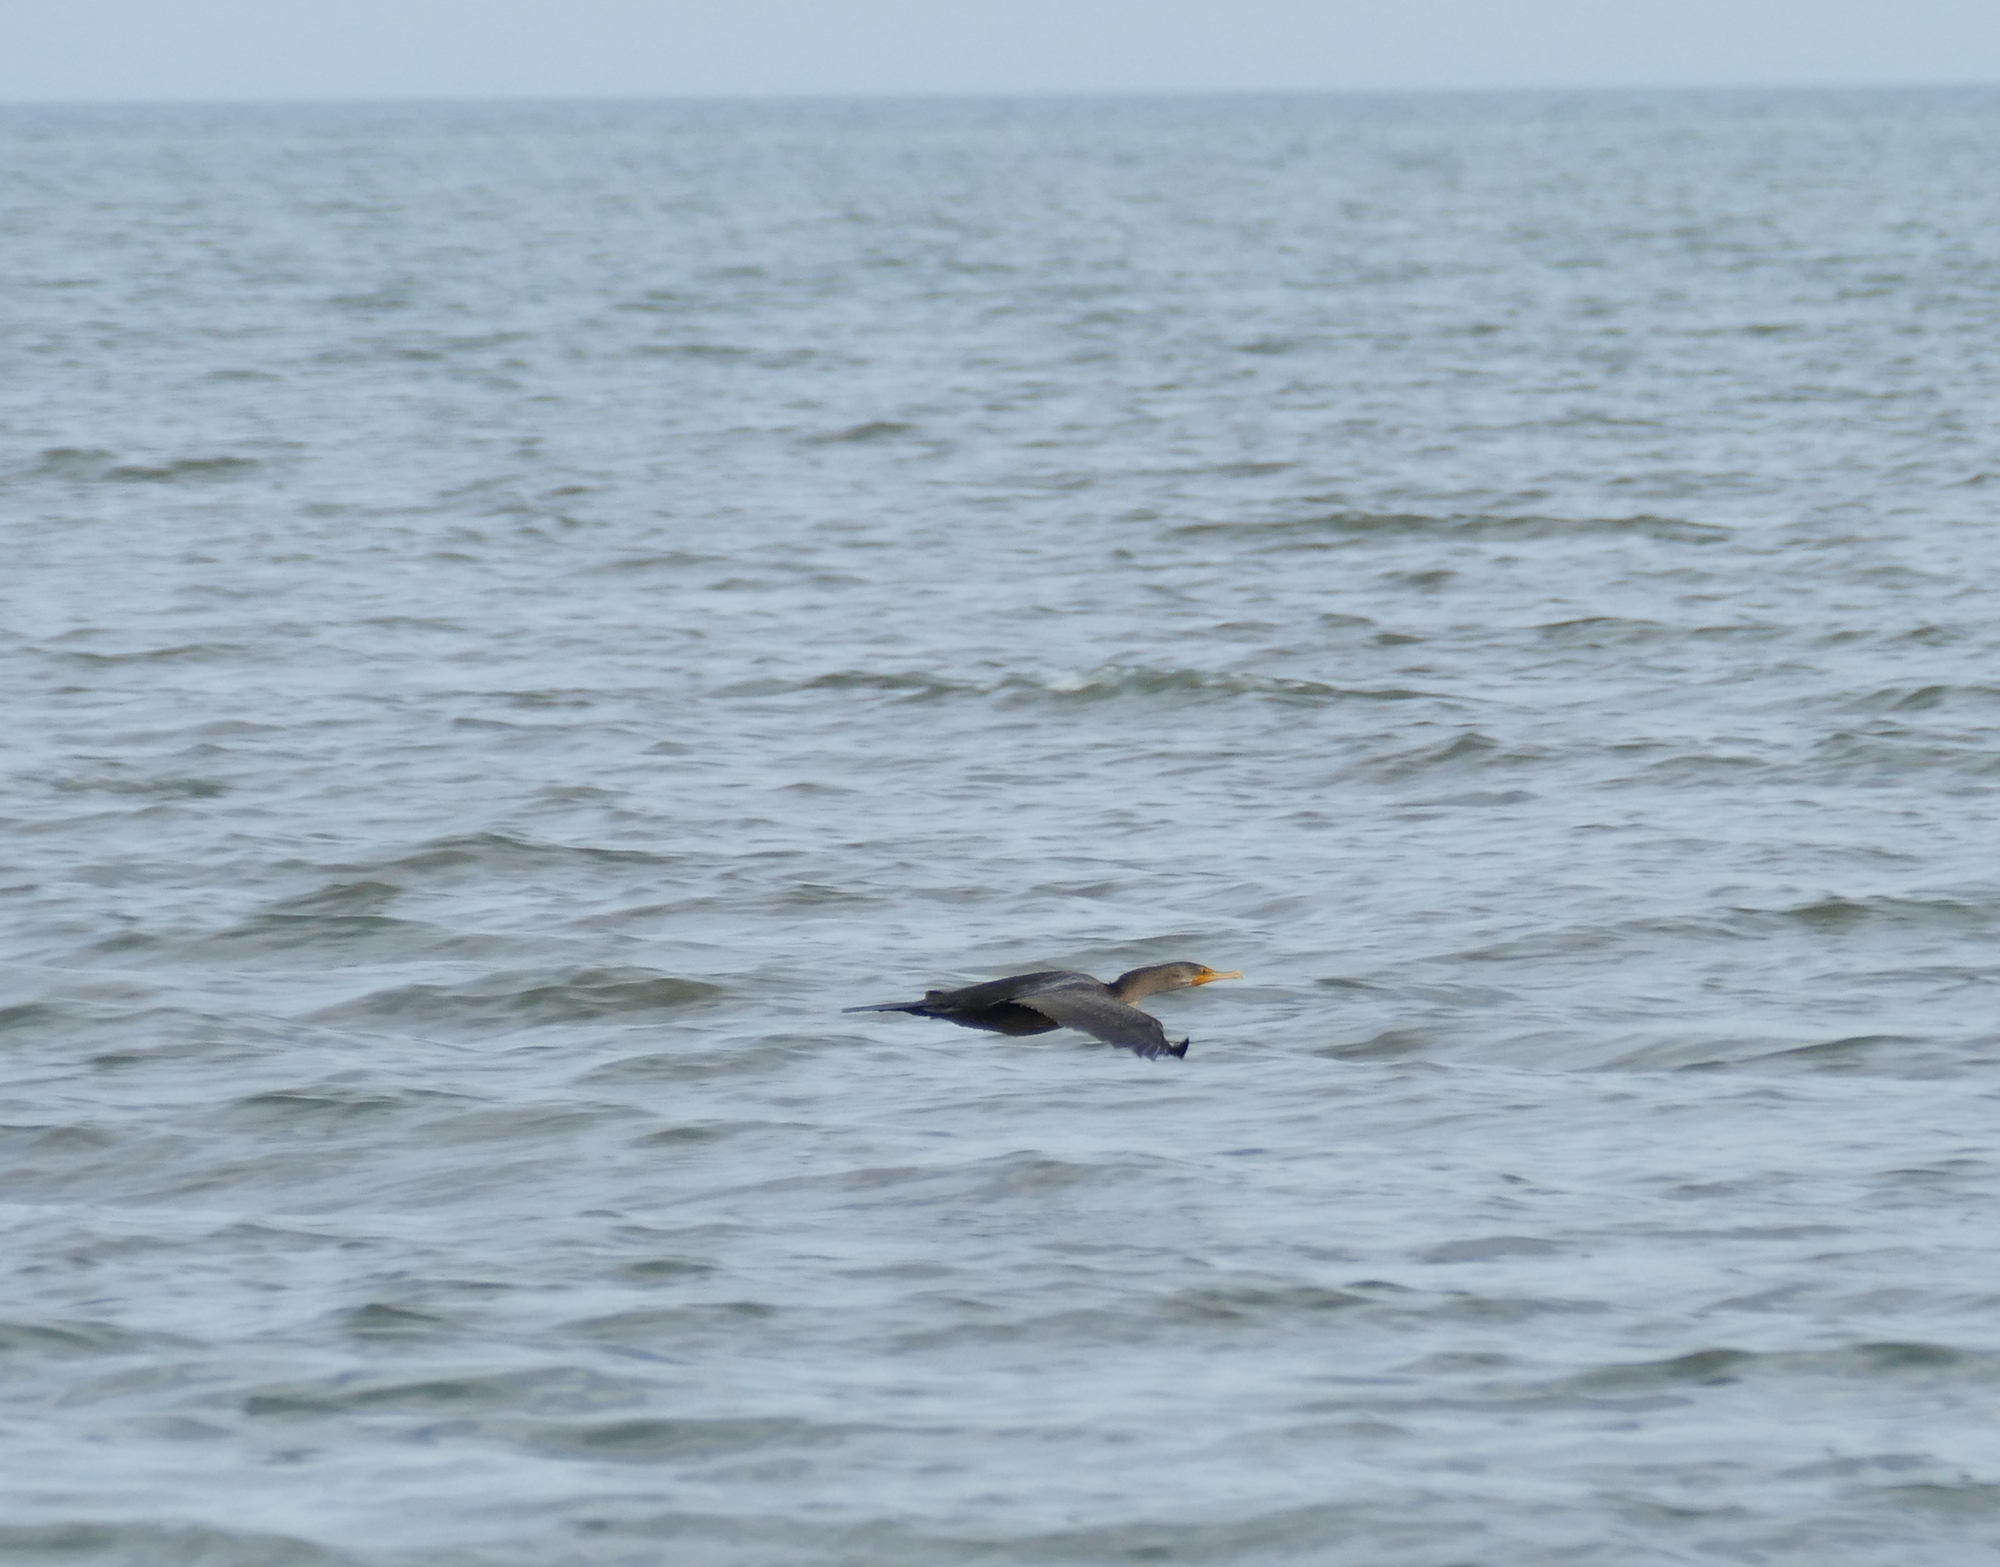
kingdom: Animalia
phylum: Chordata
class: Aves
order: Suliformes
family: Phalacrocoracidae
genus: Phalacrocorax
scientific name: Phalacrocorax auritus
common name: Double-crested cormorant
